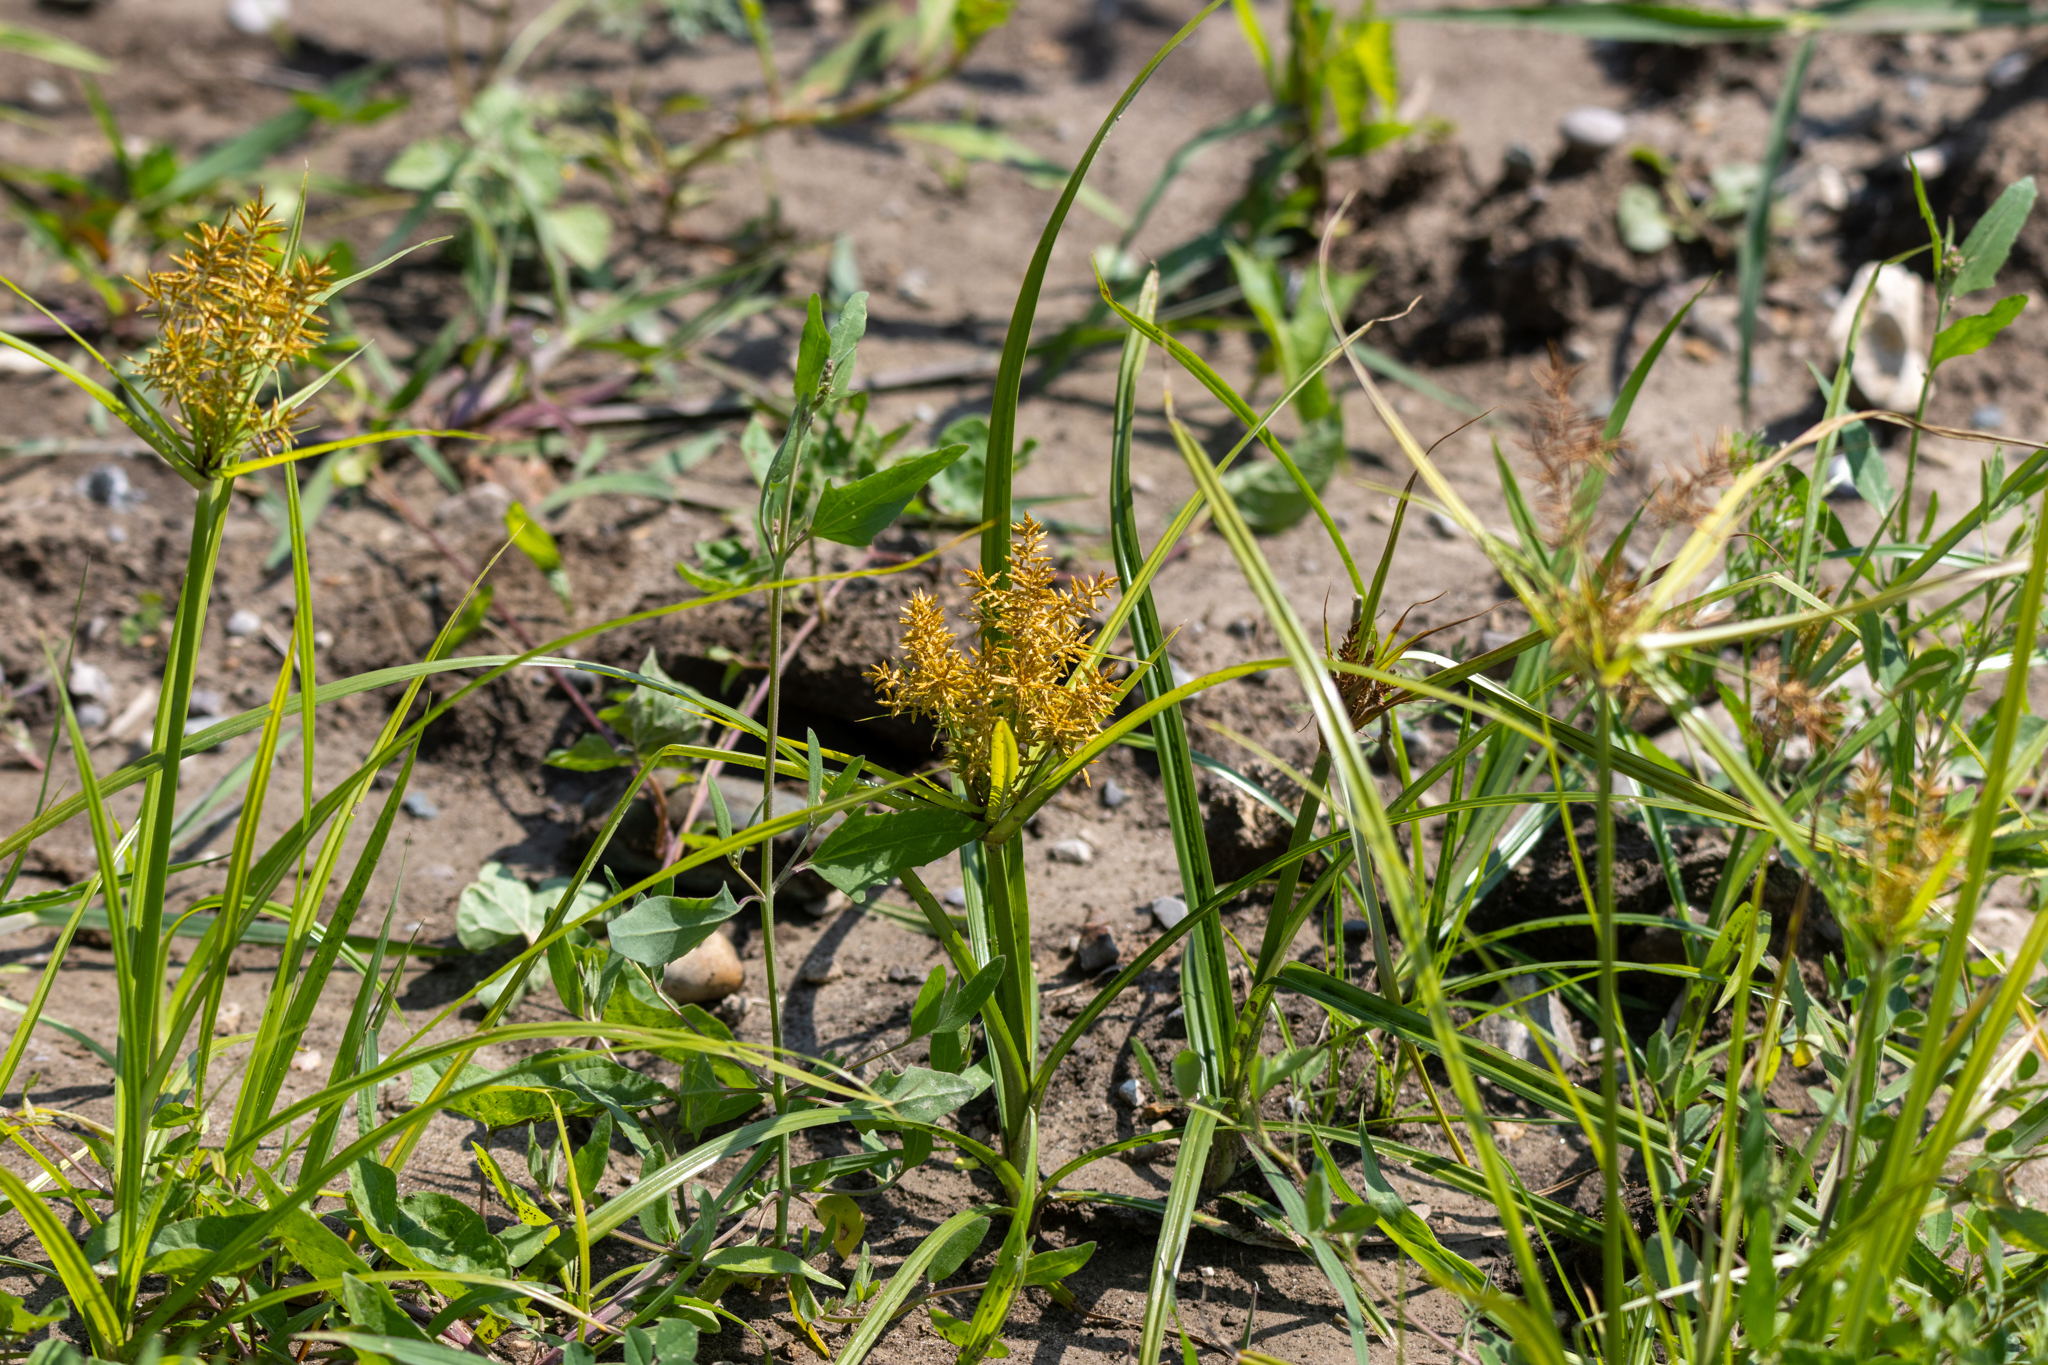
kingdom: Plantae
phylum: Tracheophyta
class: Liliopsida
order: Poales
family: Cyperaceae
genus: Cyperus
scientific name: Cyperus esculentus
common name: Yellow nutsedge
